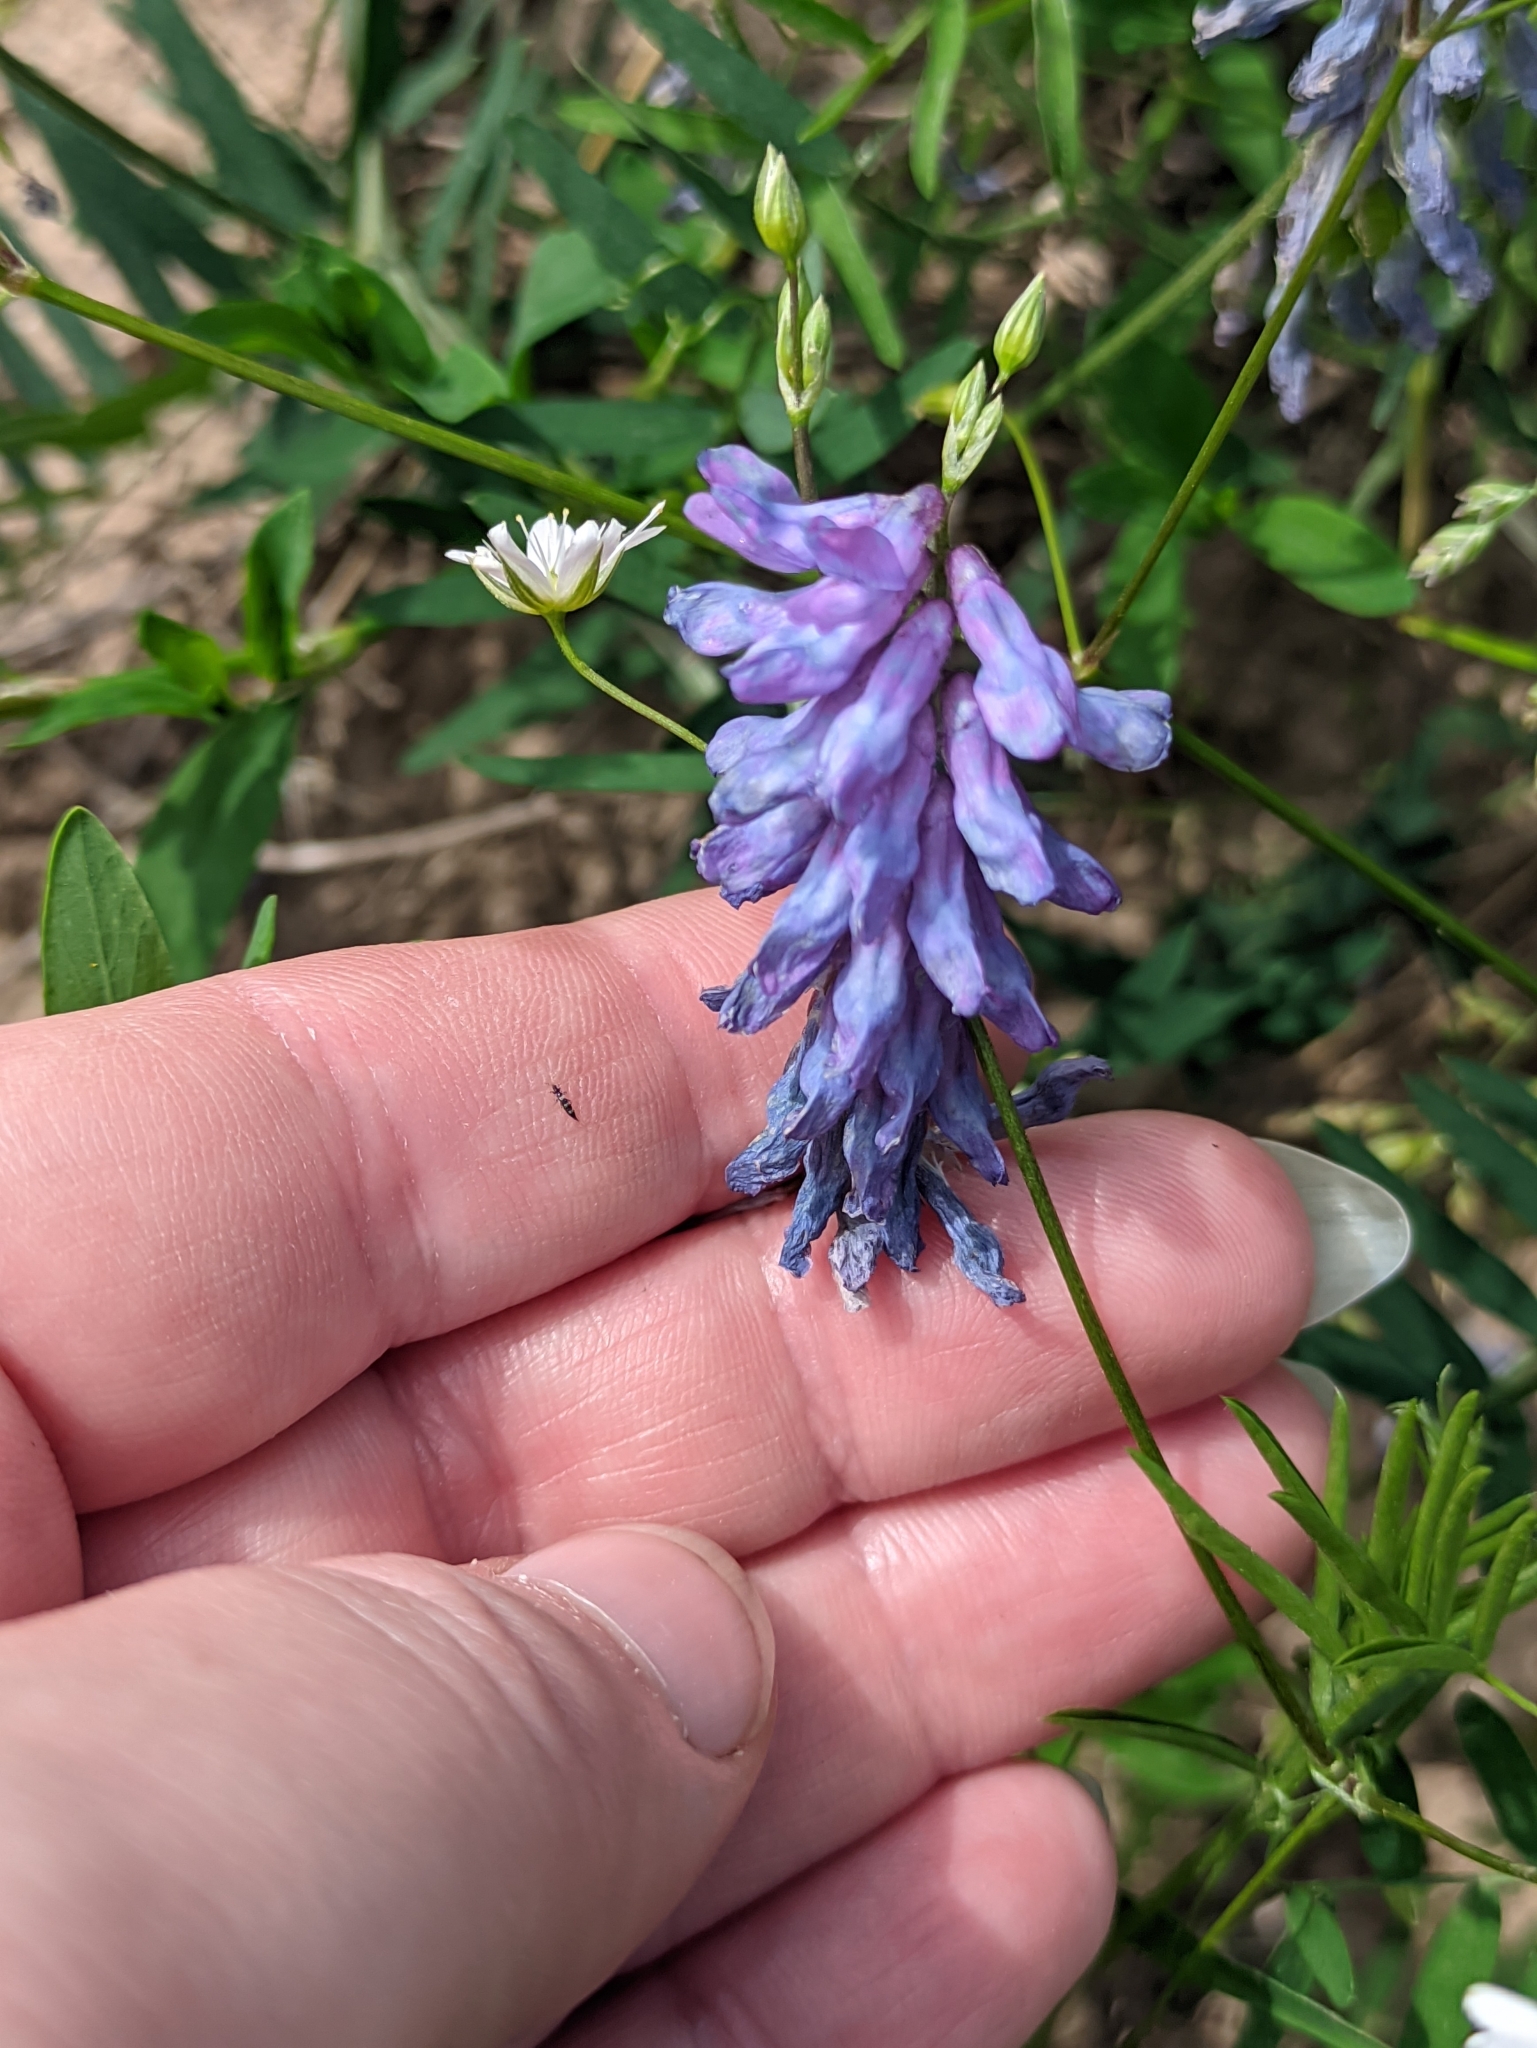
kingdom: Plantae
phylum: Tracheophyta
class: Magnoliopsida
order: Fabales
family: Fabaceae
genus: Vicia
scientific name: Vicia cracca
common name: Bird vetch
